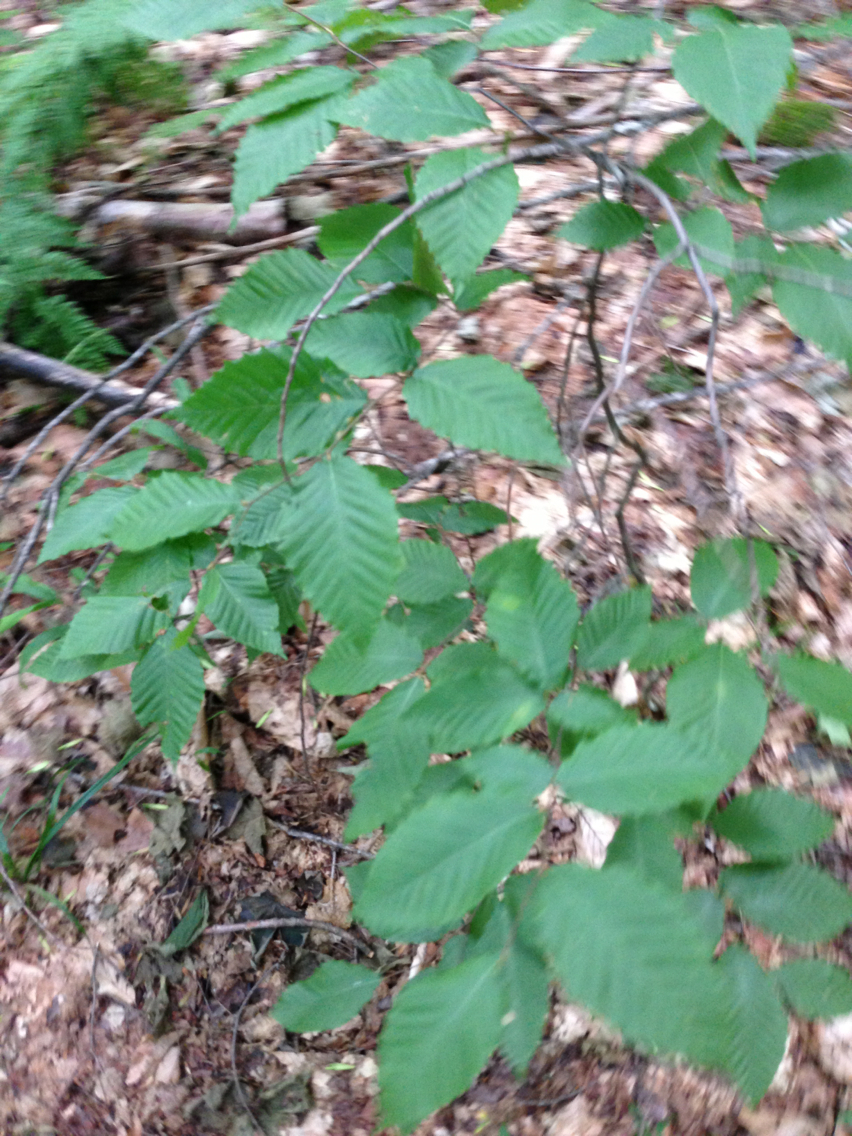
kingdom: Plantae
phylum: Tracheophyta
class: Magnoliopsida
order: Fagales
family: Fagaceae
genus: Fagus
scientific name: Fagus grandifolia
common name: American beech
